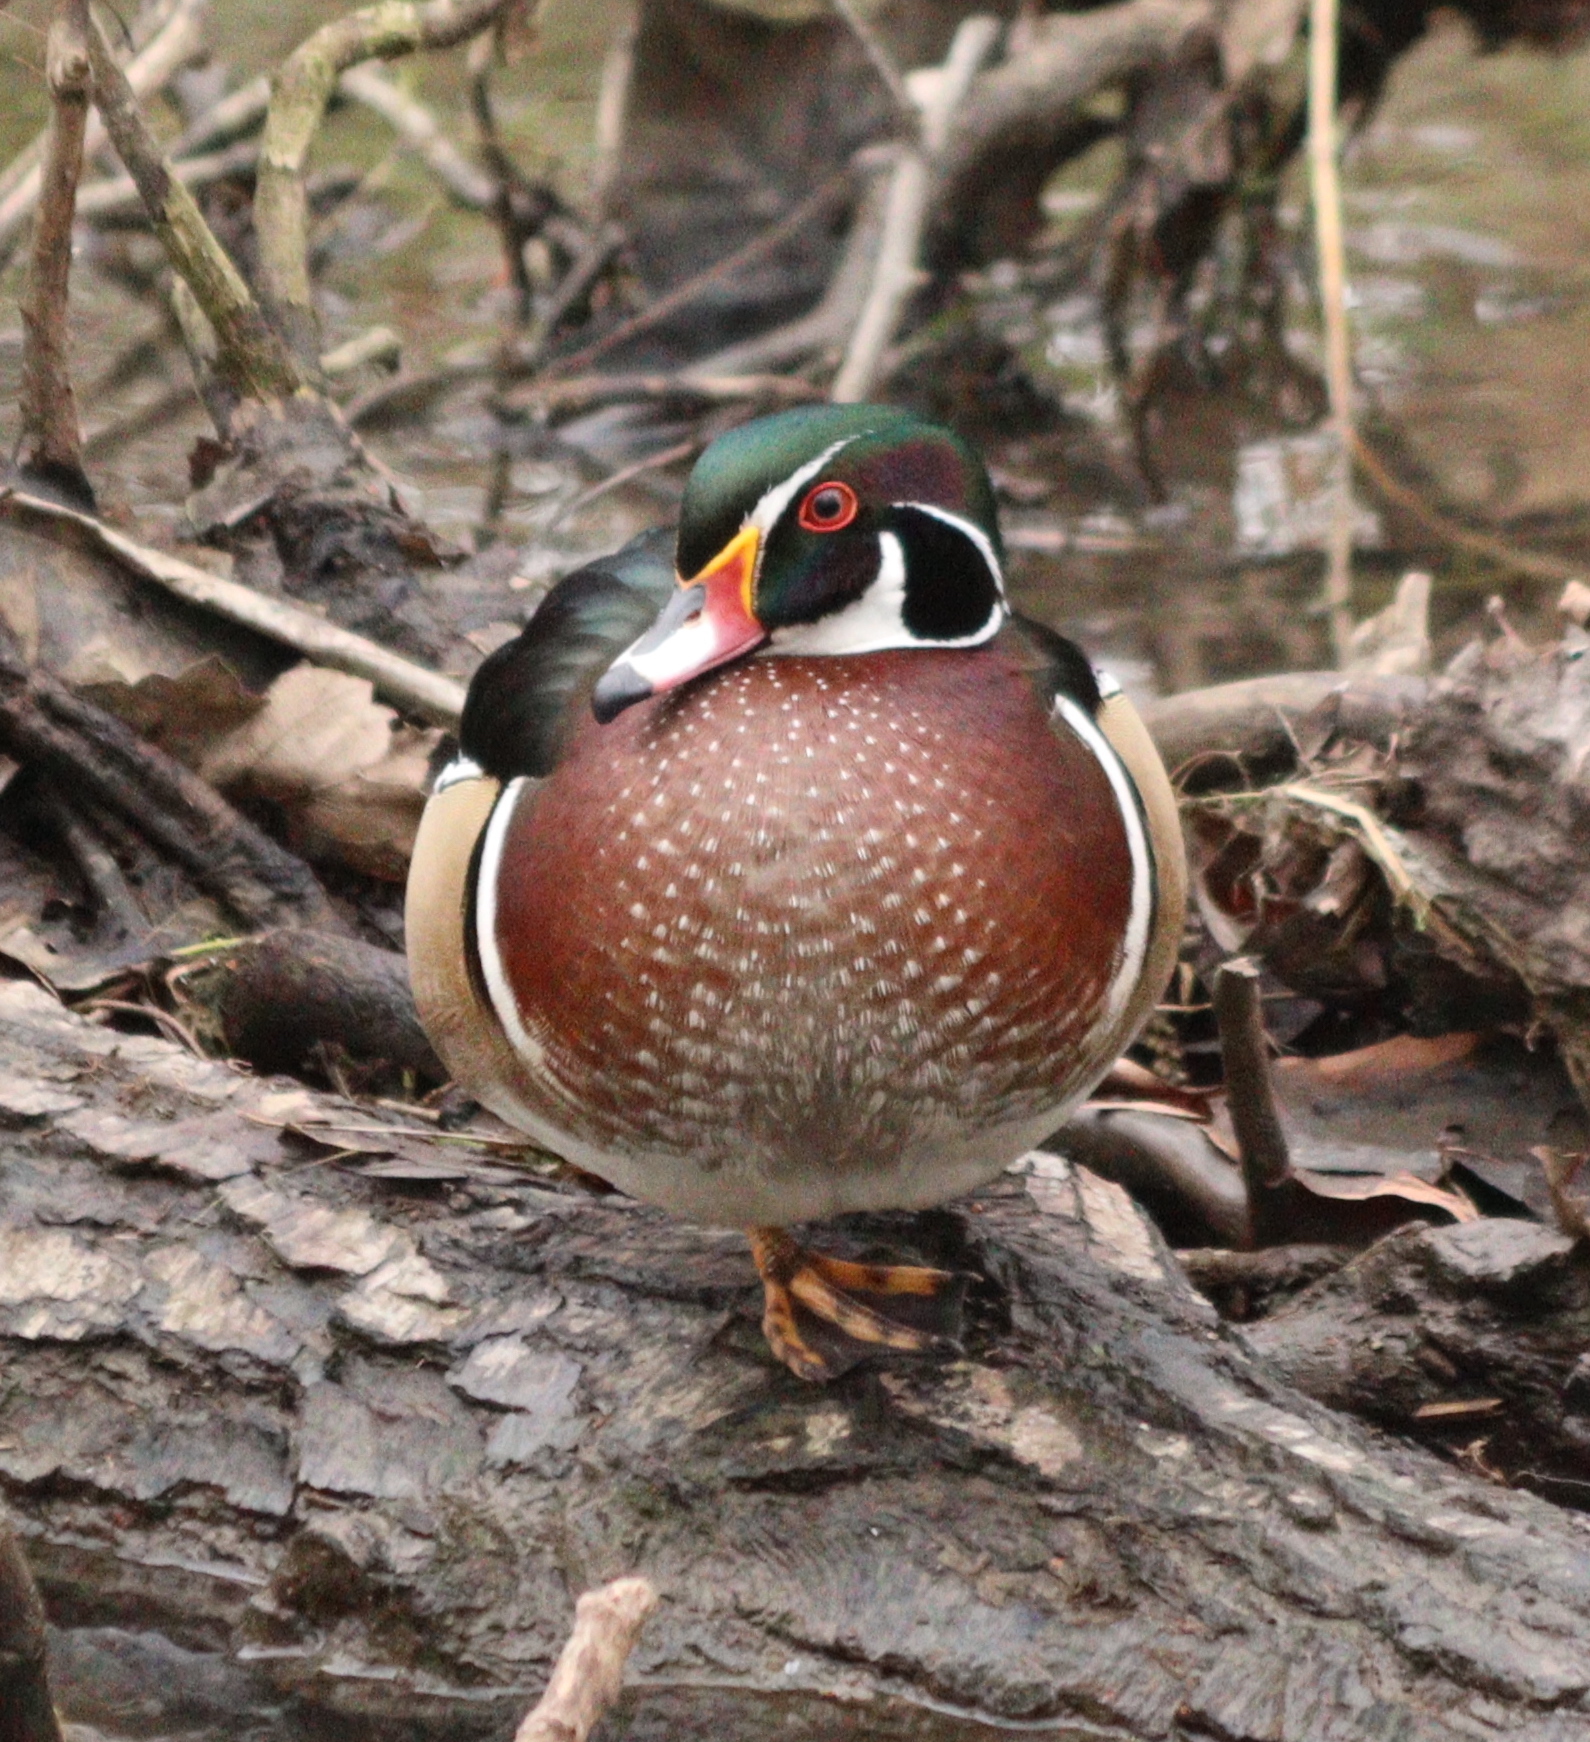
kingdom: Animalia
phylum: Chordata
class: Aves
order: Anseriformes
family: Anatidae
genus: Aix
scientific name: Aix sponsa
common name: Wood duck
